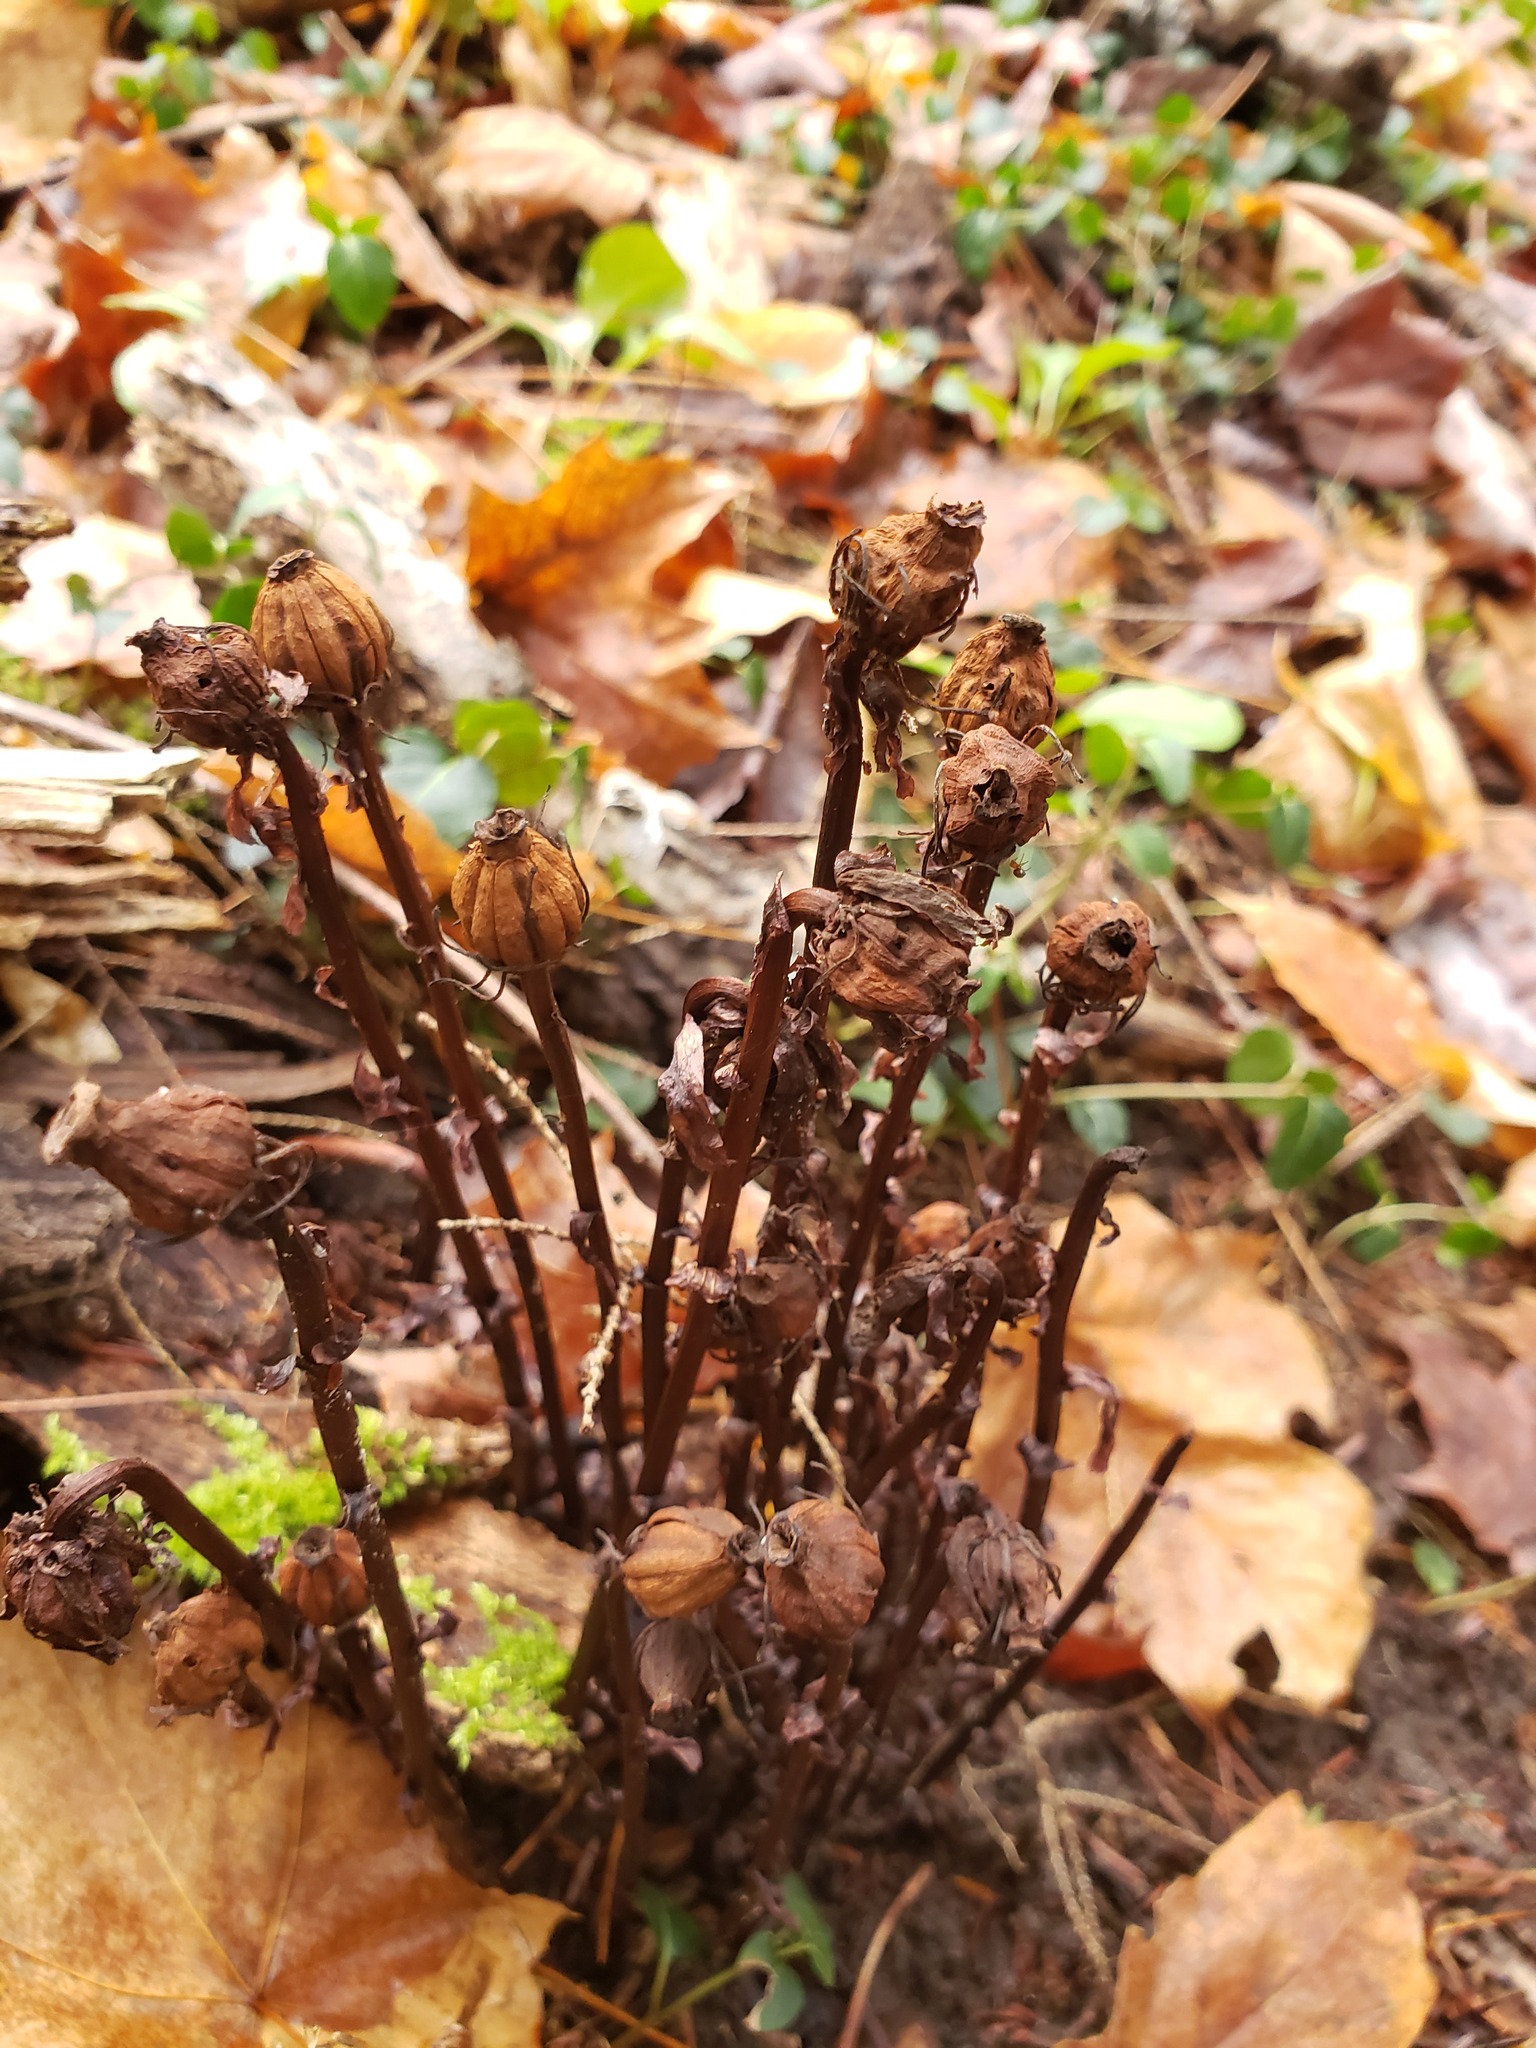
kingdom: Plantae
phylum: Tracheophyta
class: Magnoliopsida
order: Ericales
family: Ericaceae
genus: Monotropa
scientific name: Monotropa uniflora
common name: Convulsion root
